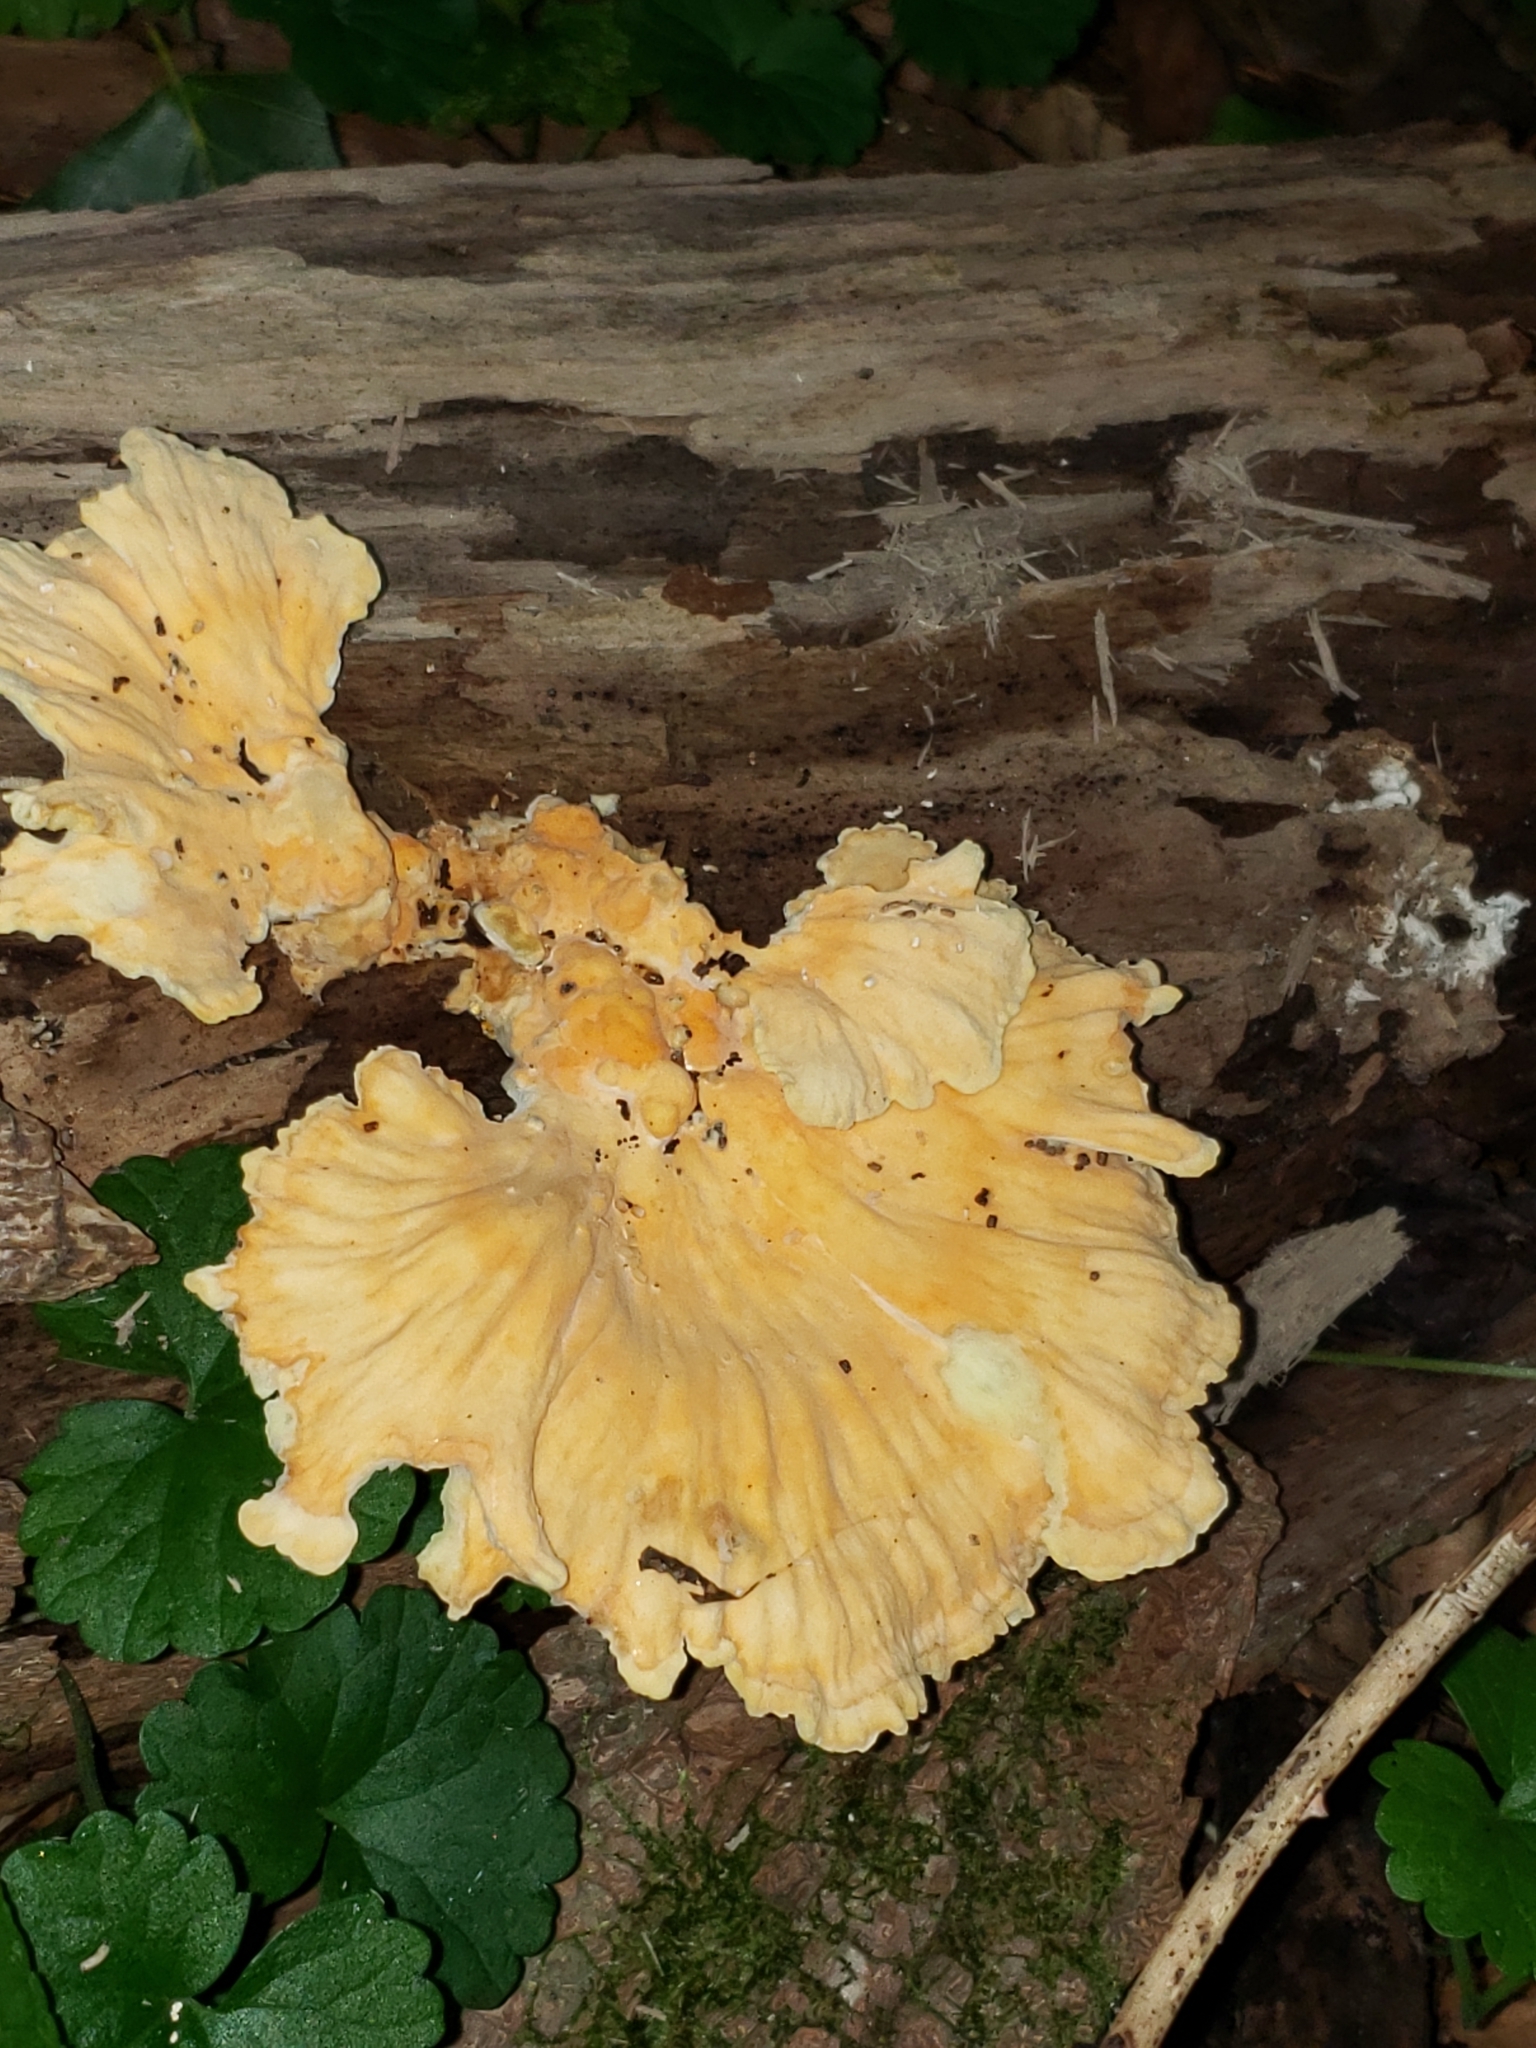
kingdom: Fungi
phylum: Basidiomycota
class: Agaricomycetes
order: Polyporales
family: Laetiporaceae
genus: Laetiporus
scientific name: Laetiporus sulphureus
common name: Chicken of the woods
